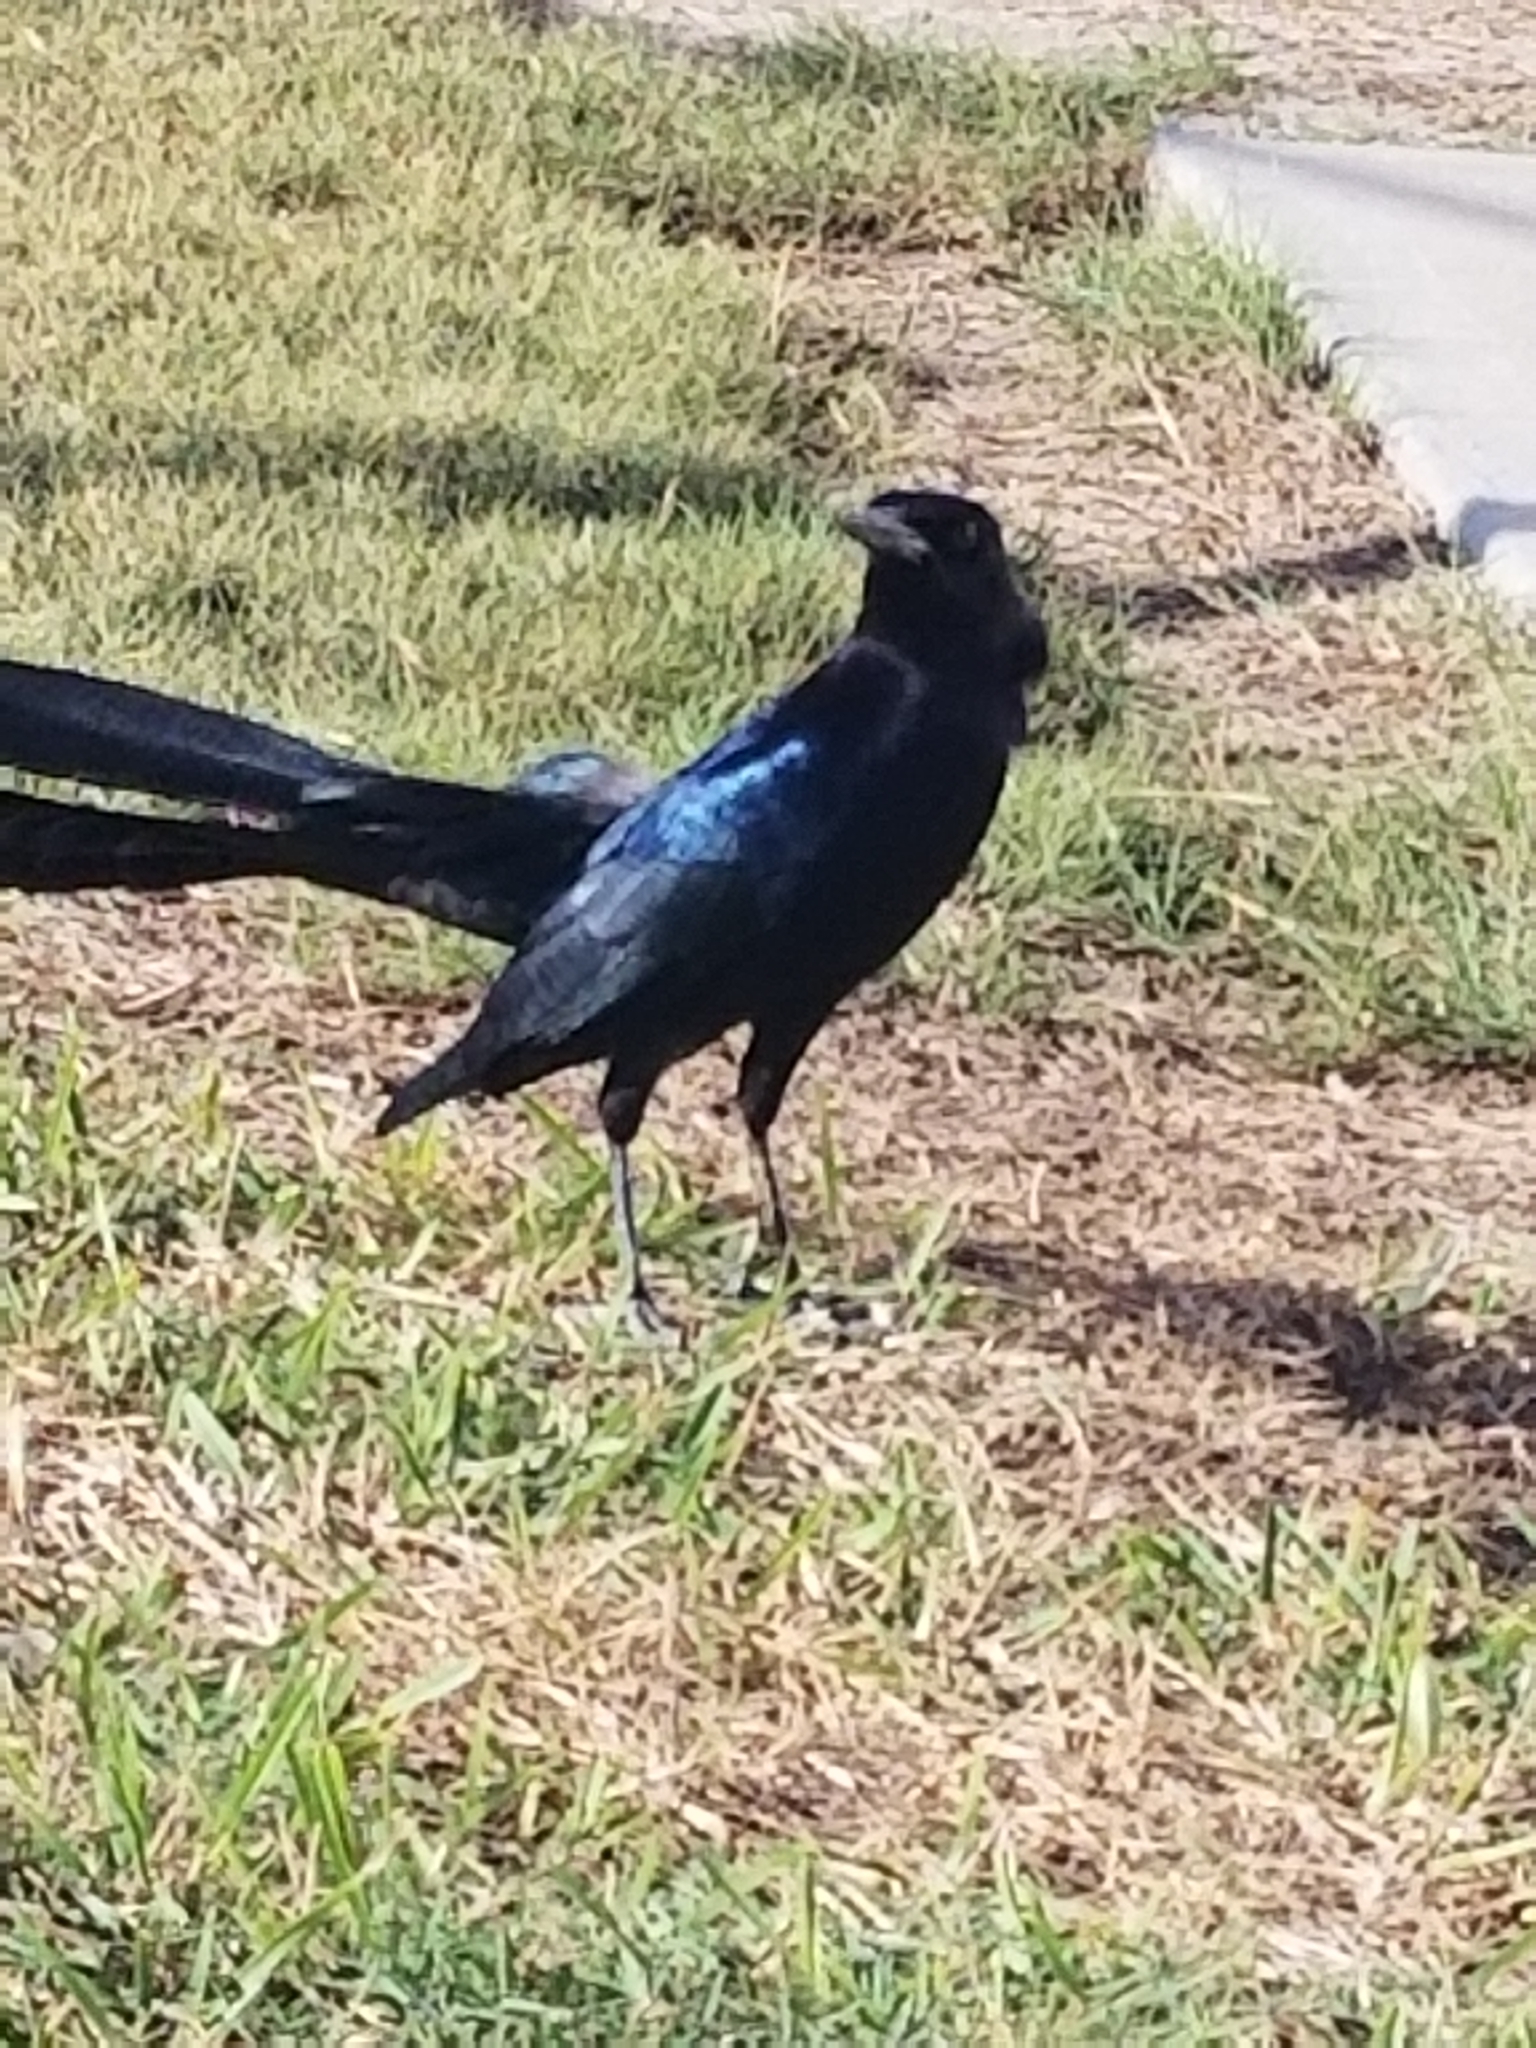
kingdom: Animalia
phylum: Chordata
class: Aves
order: Passeriformes
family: Icteridae
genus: Quiscalus
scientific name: Quiscalus major
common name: Boat-tailed grackle
